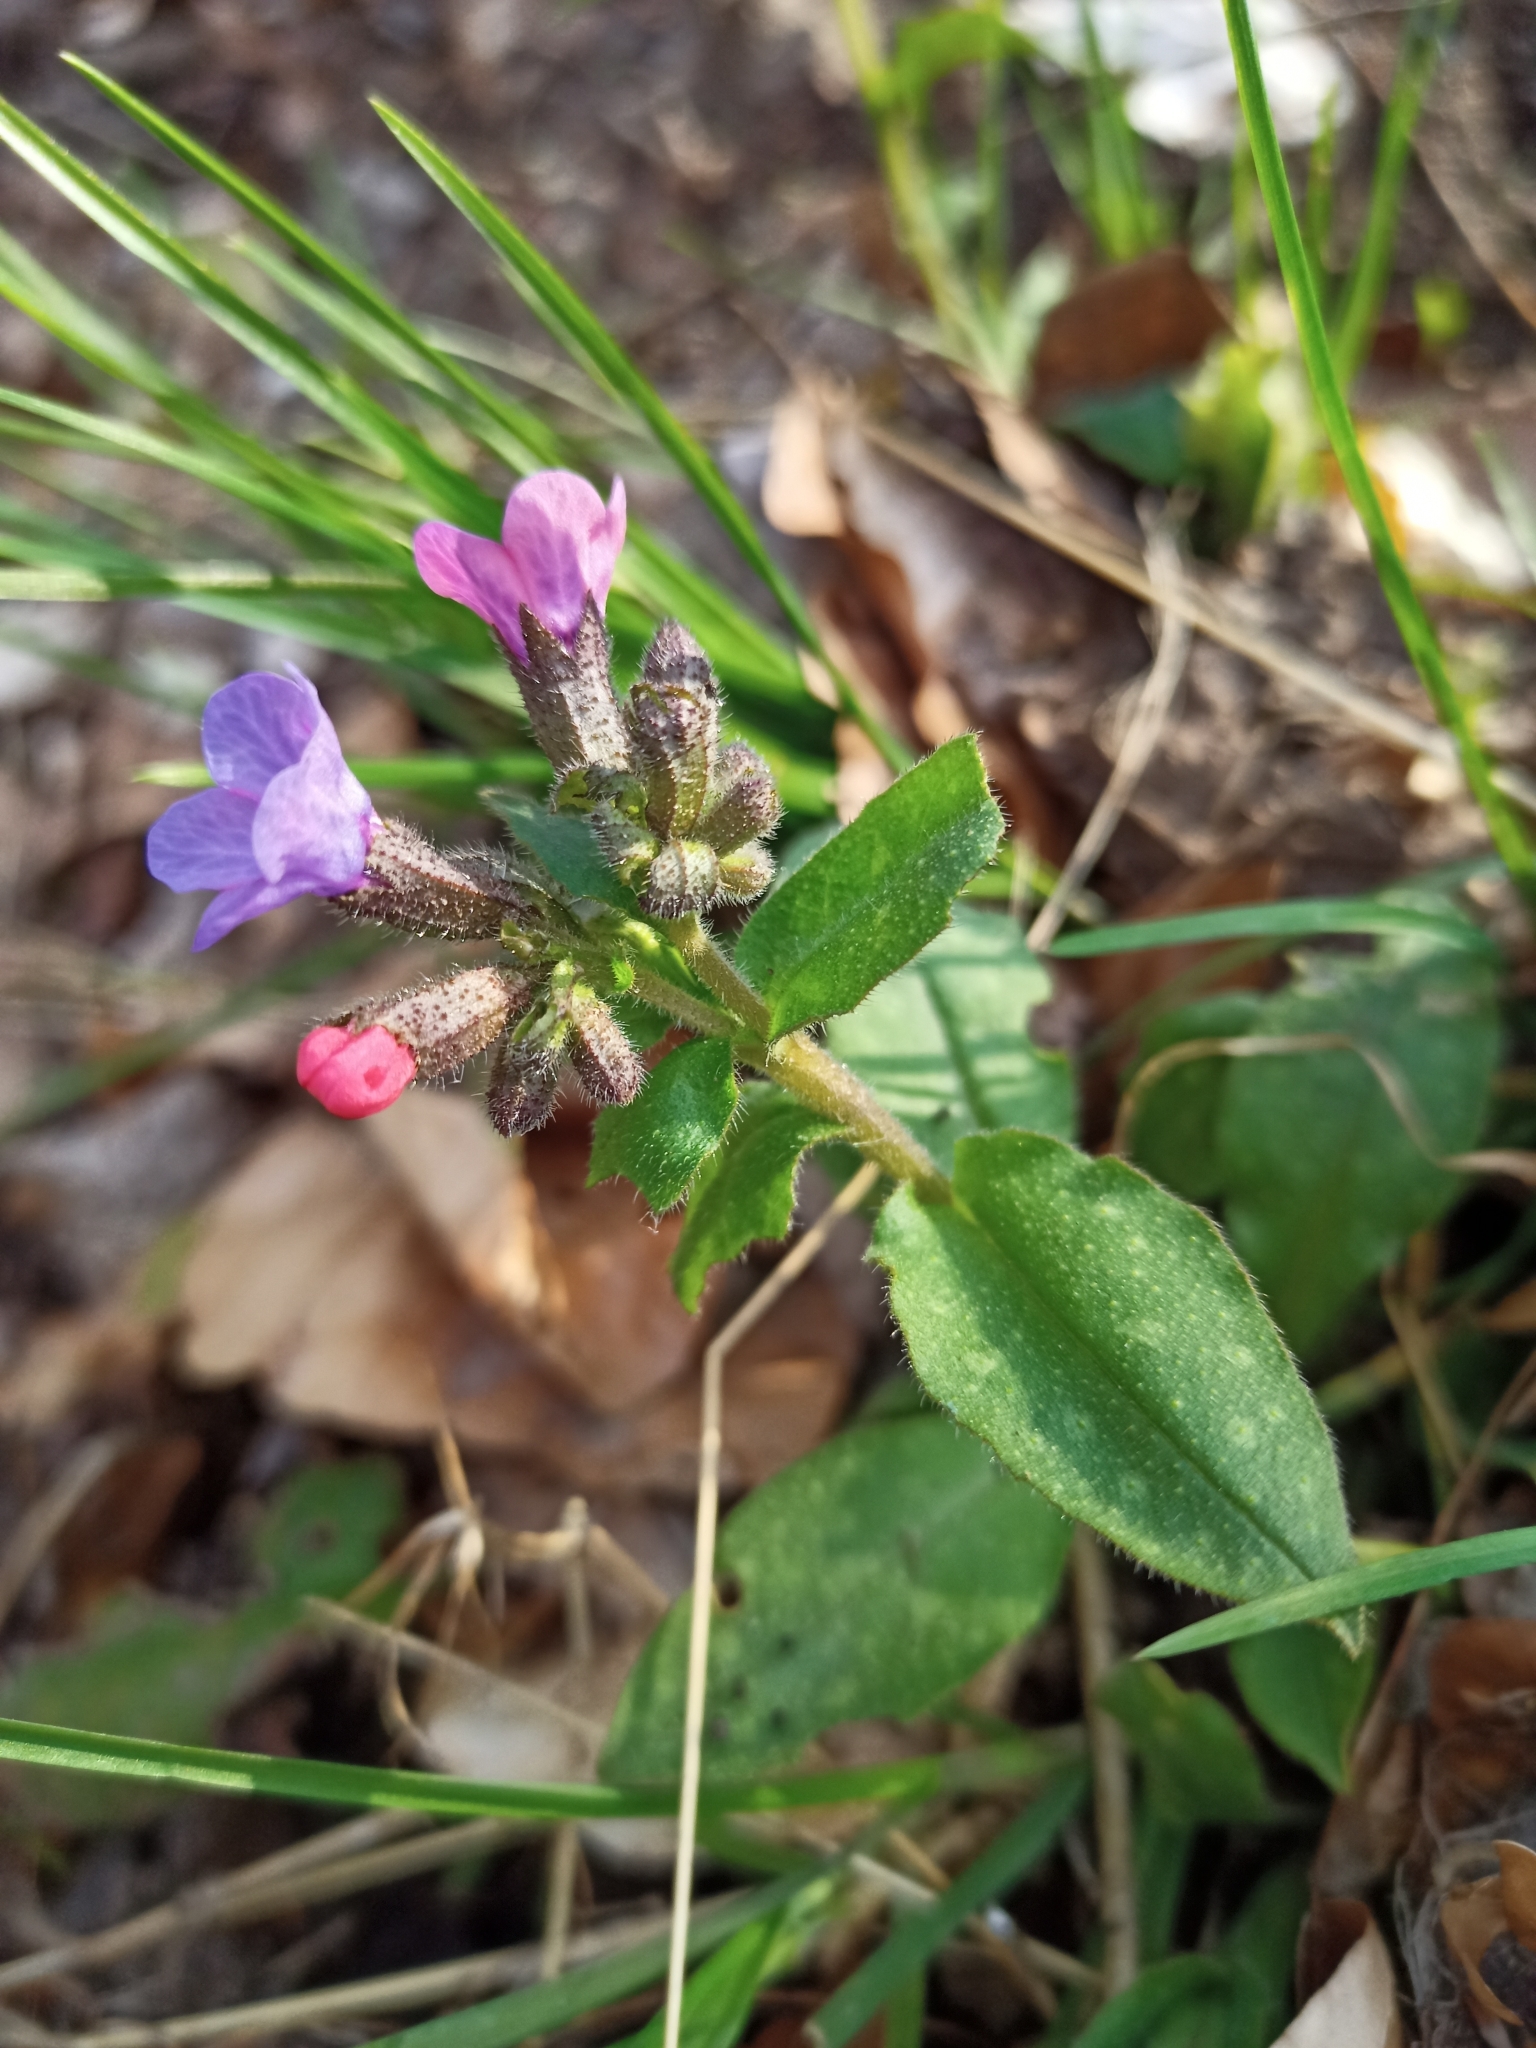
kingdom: Plantae
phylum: Tracheophyta
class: Magnoliopsida
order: Boraginales
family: Boraginaceae
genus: Pulmonaria
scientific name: Pulmonaria officinalis
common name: Lungwort
